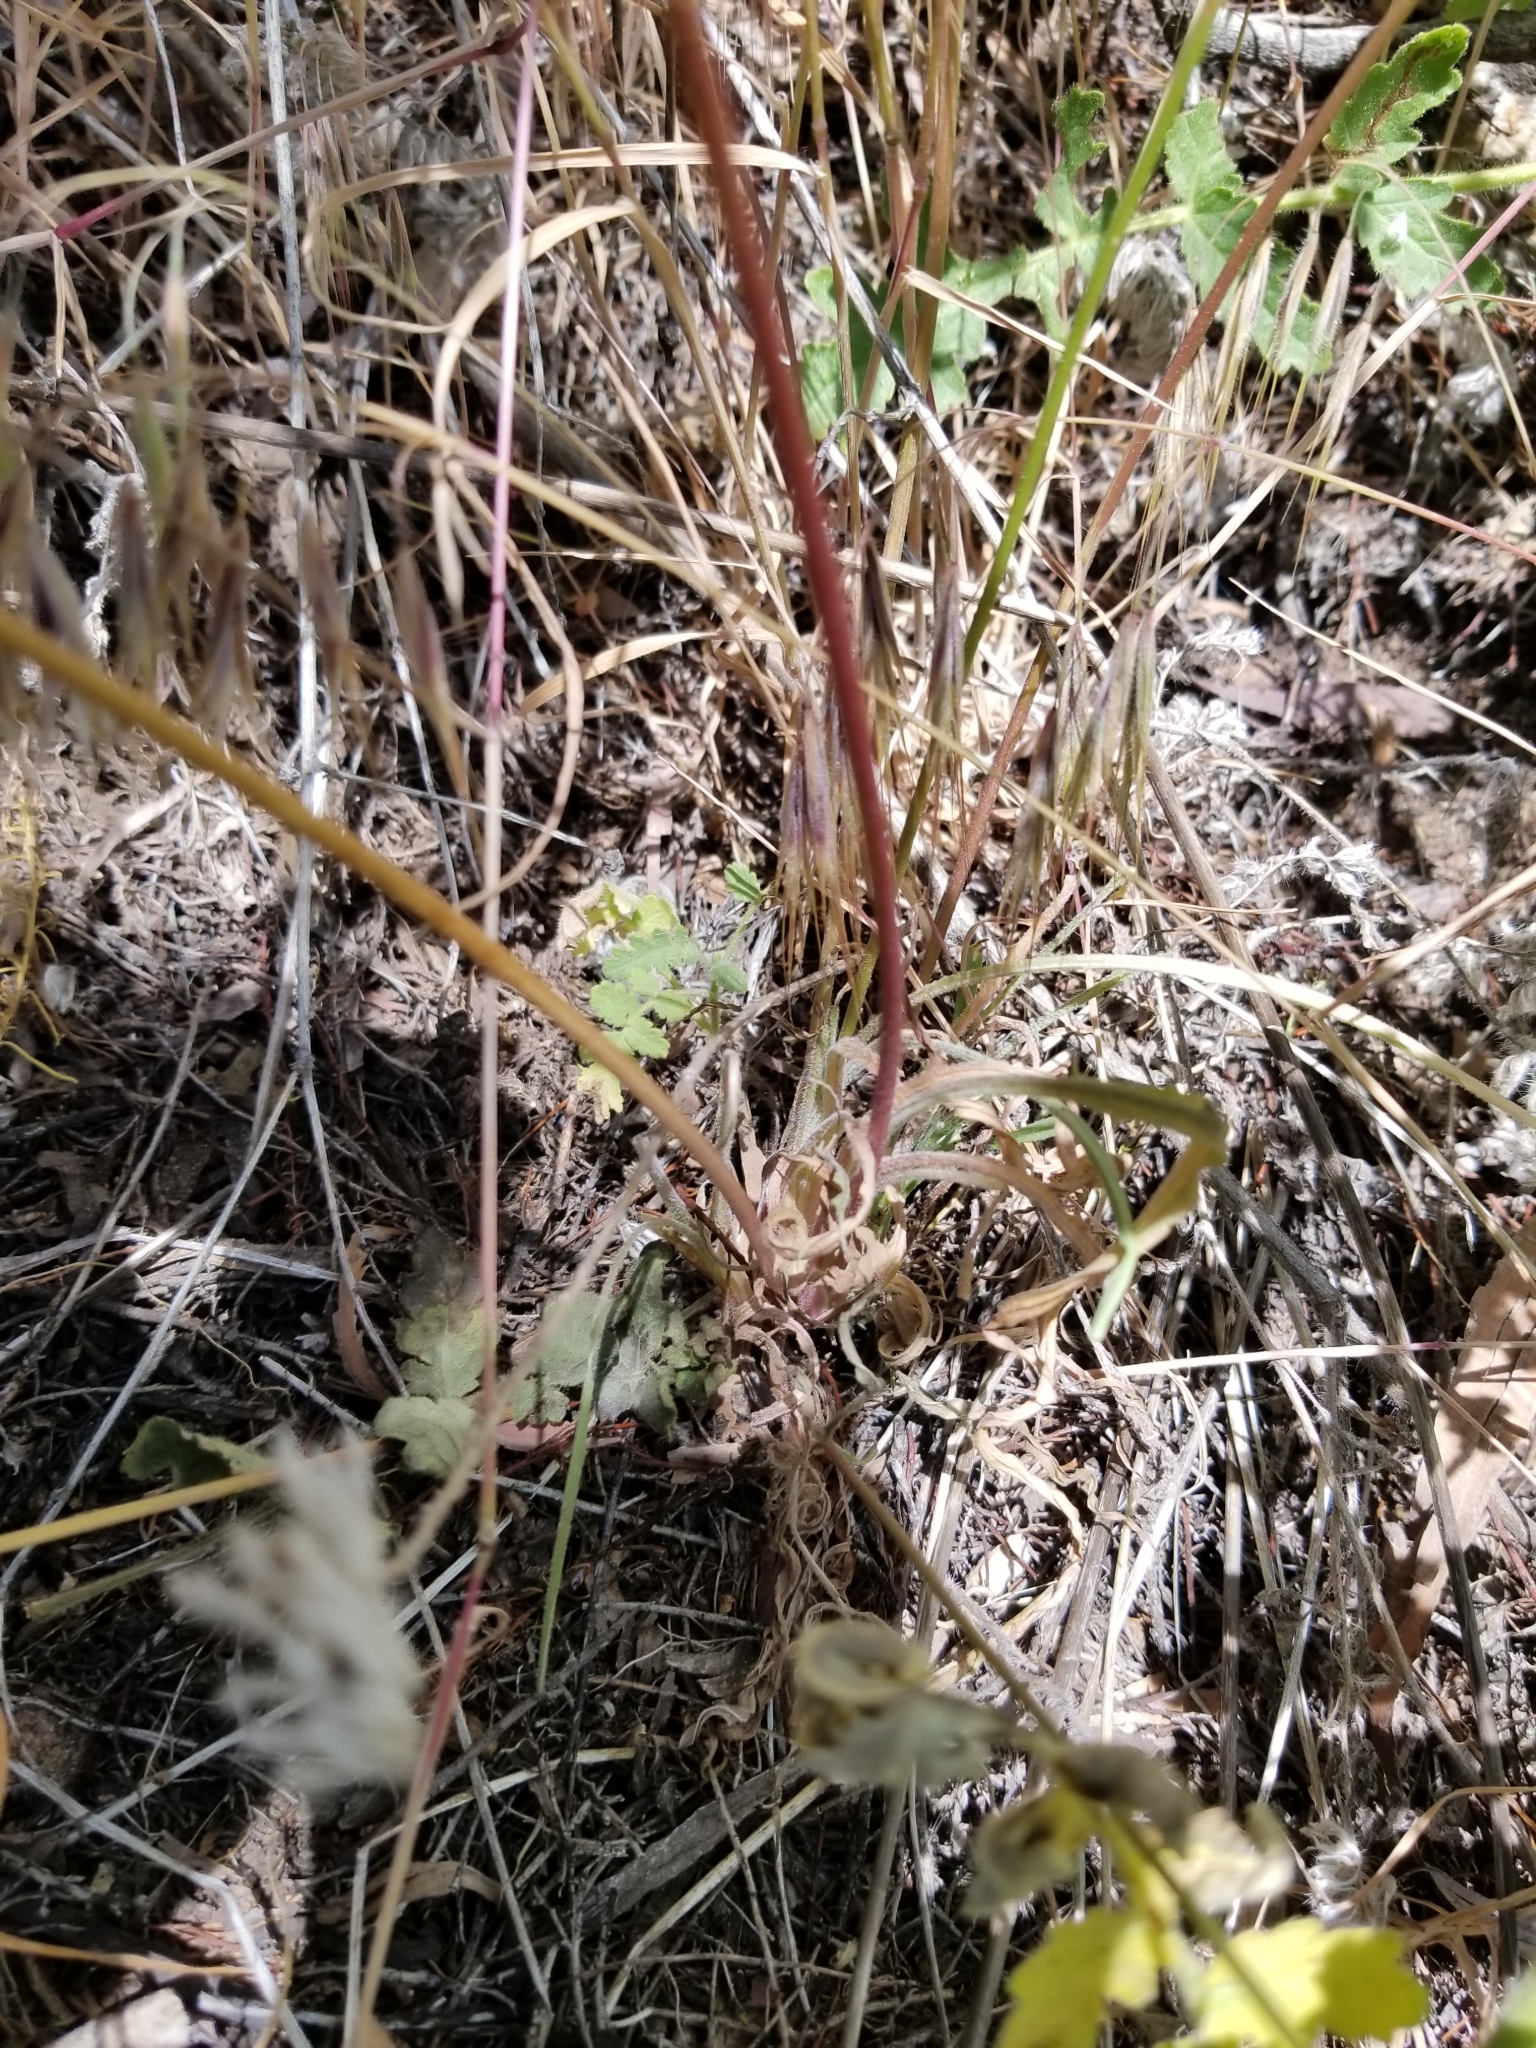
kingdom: Plantae
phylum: Tracheophyta
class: Magnoliopsida
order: Asterales
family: Asteraceae
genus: Microseris
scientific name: Microseris lindleyi
